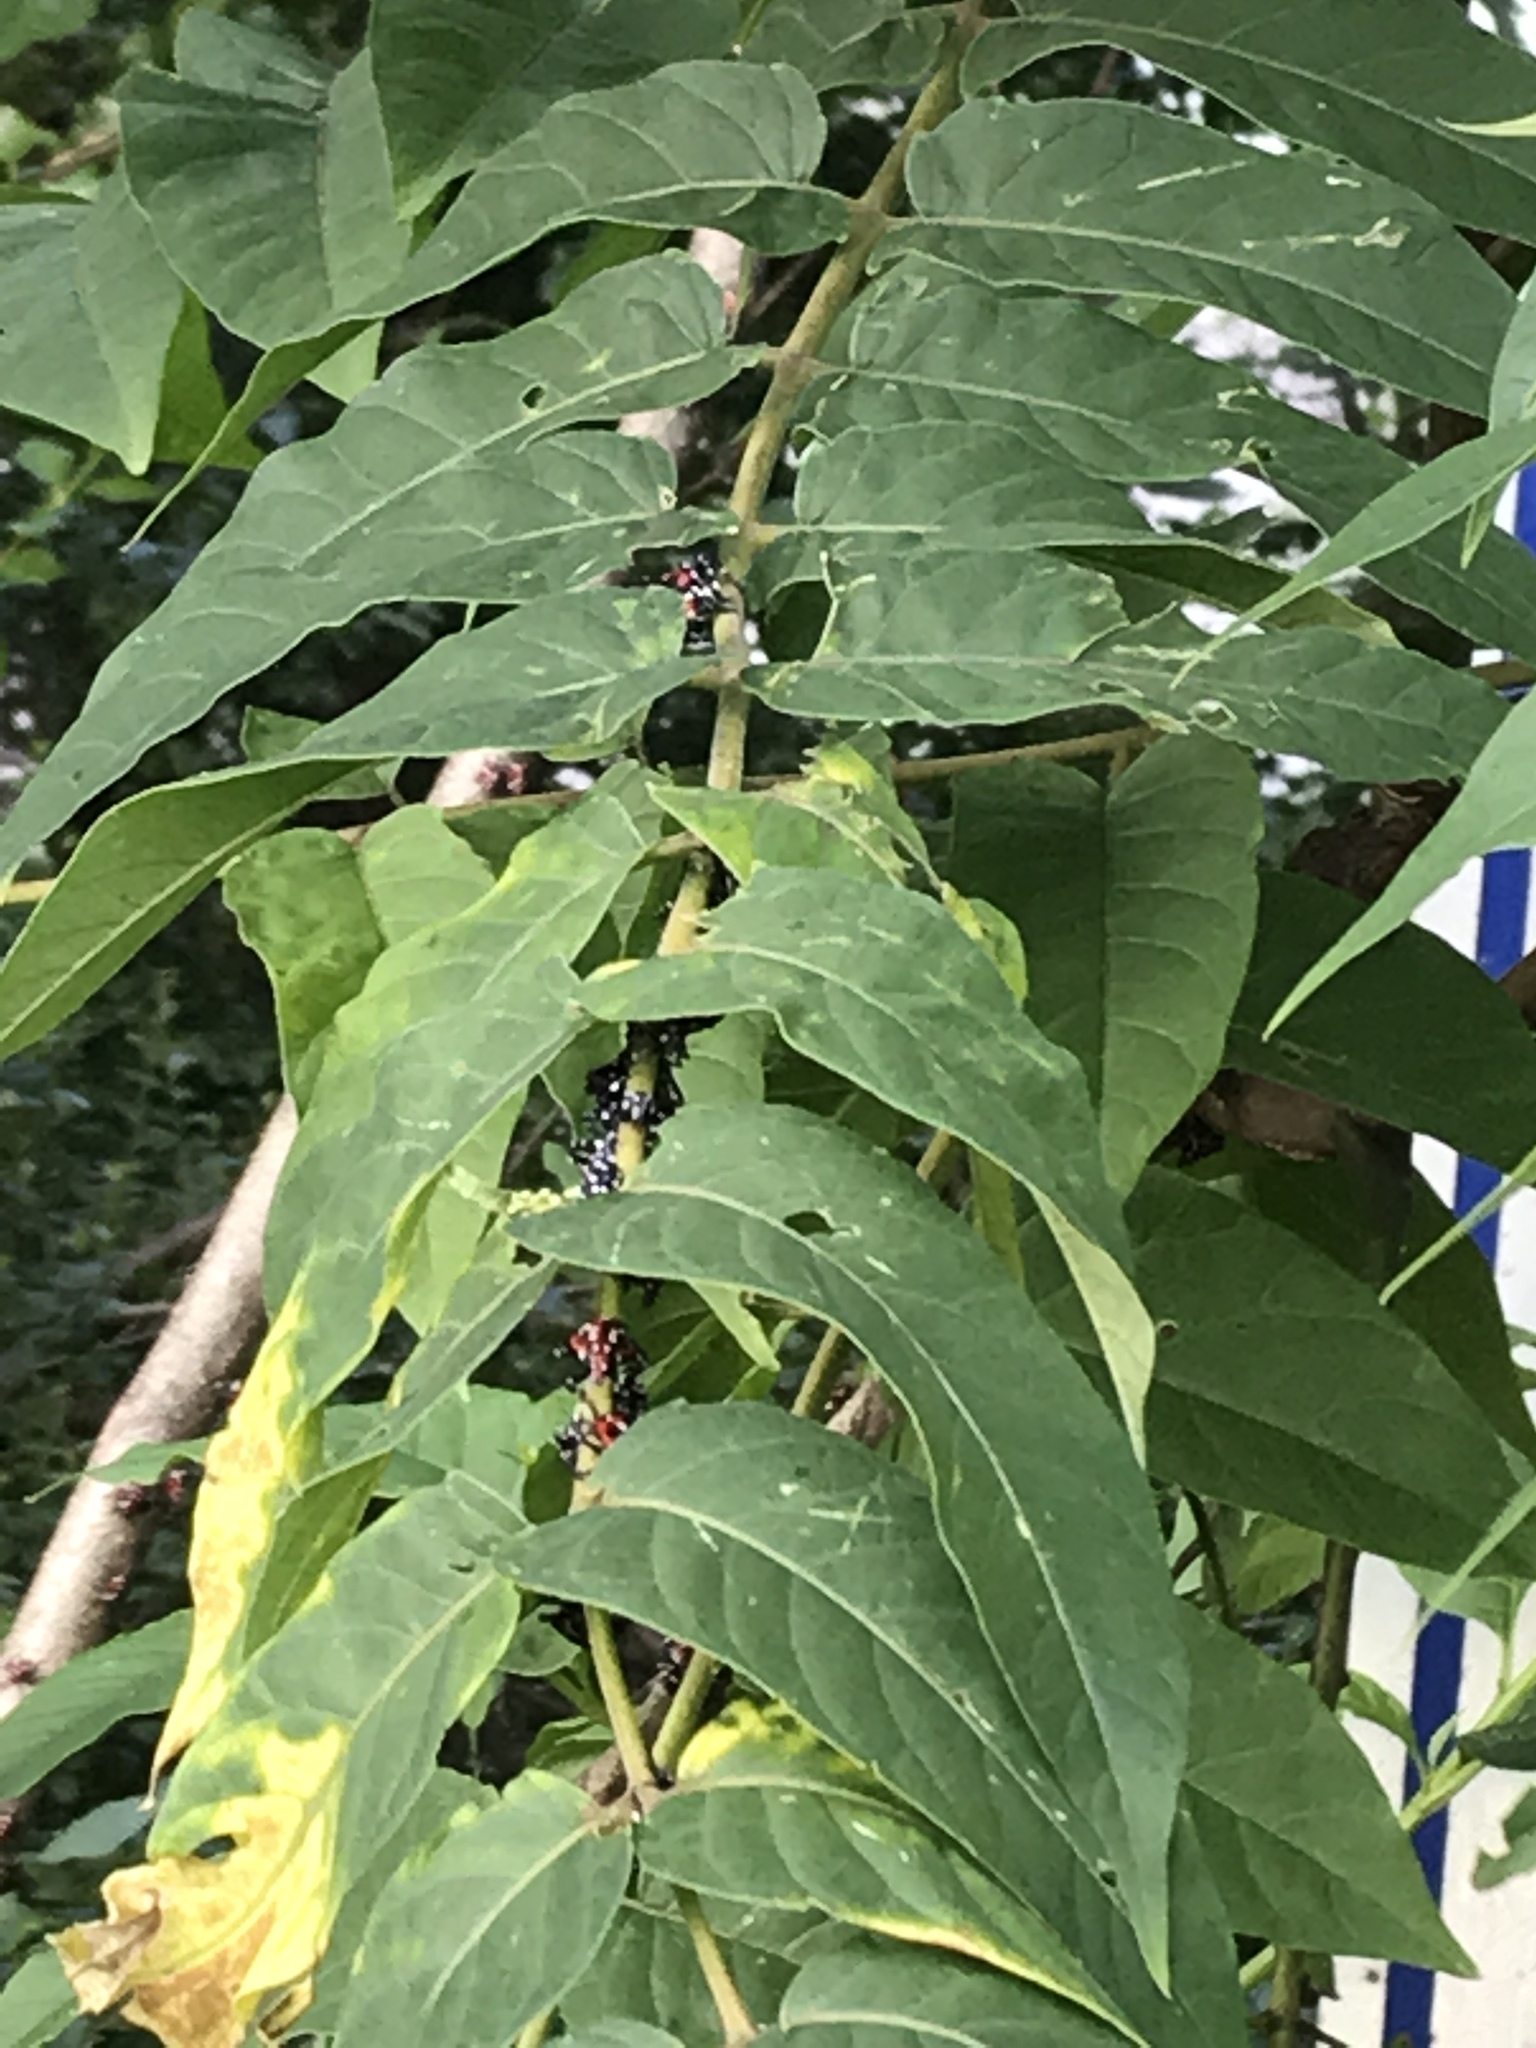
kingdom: Animalia
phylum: Arthropoda
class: Insecta
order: Hemiptera
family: Fulgoridae
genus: Lycorma
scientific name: Lycorma delicatula
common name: Spotted lanternfly
